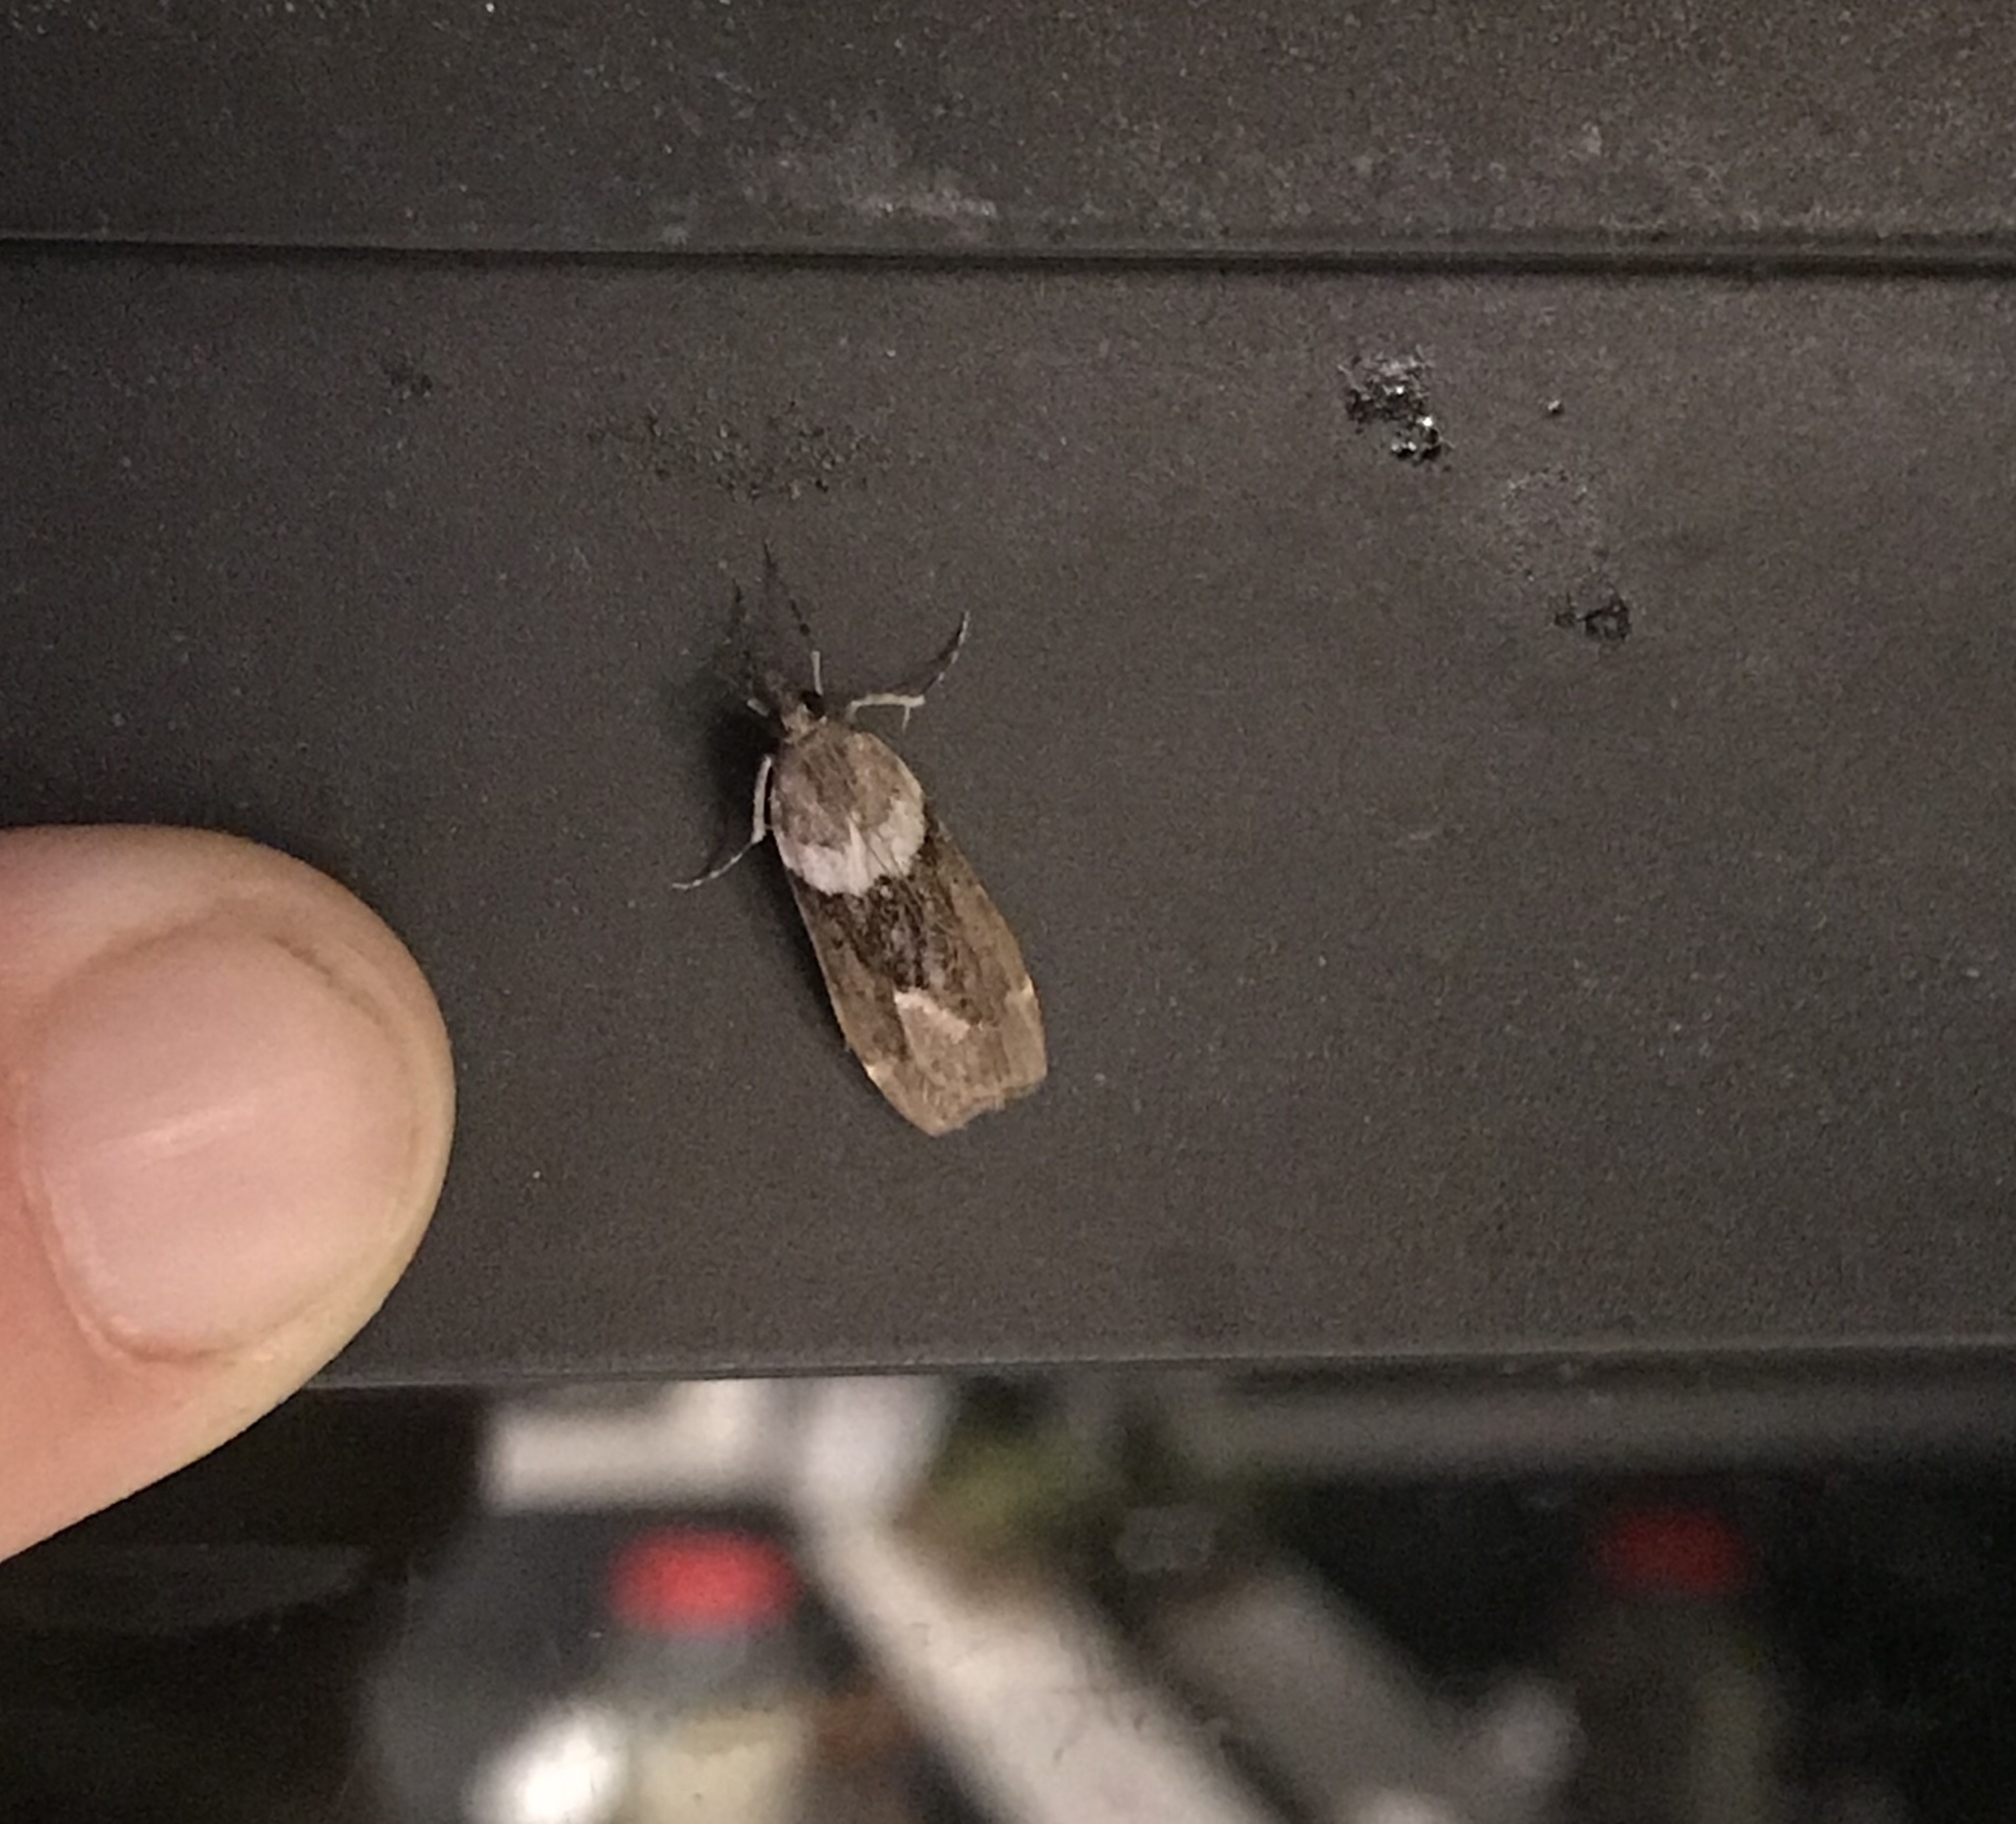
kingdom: Animalia
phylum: Arthropoda
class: Insecta
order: Lepidoptera
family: Crambidae
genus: Eudonia
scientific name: Eudonia submarginalis
